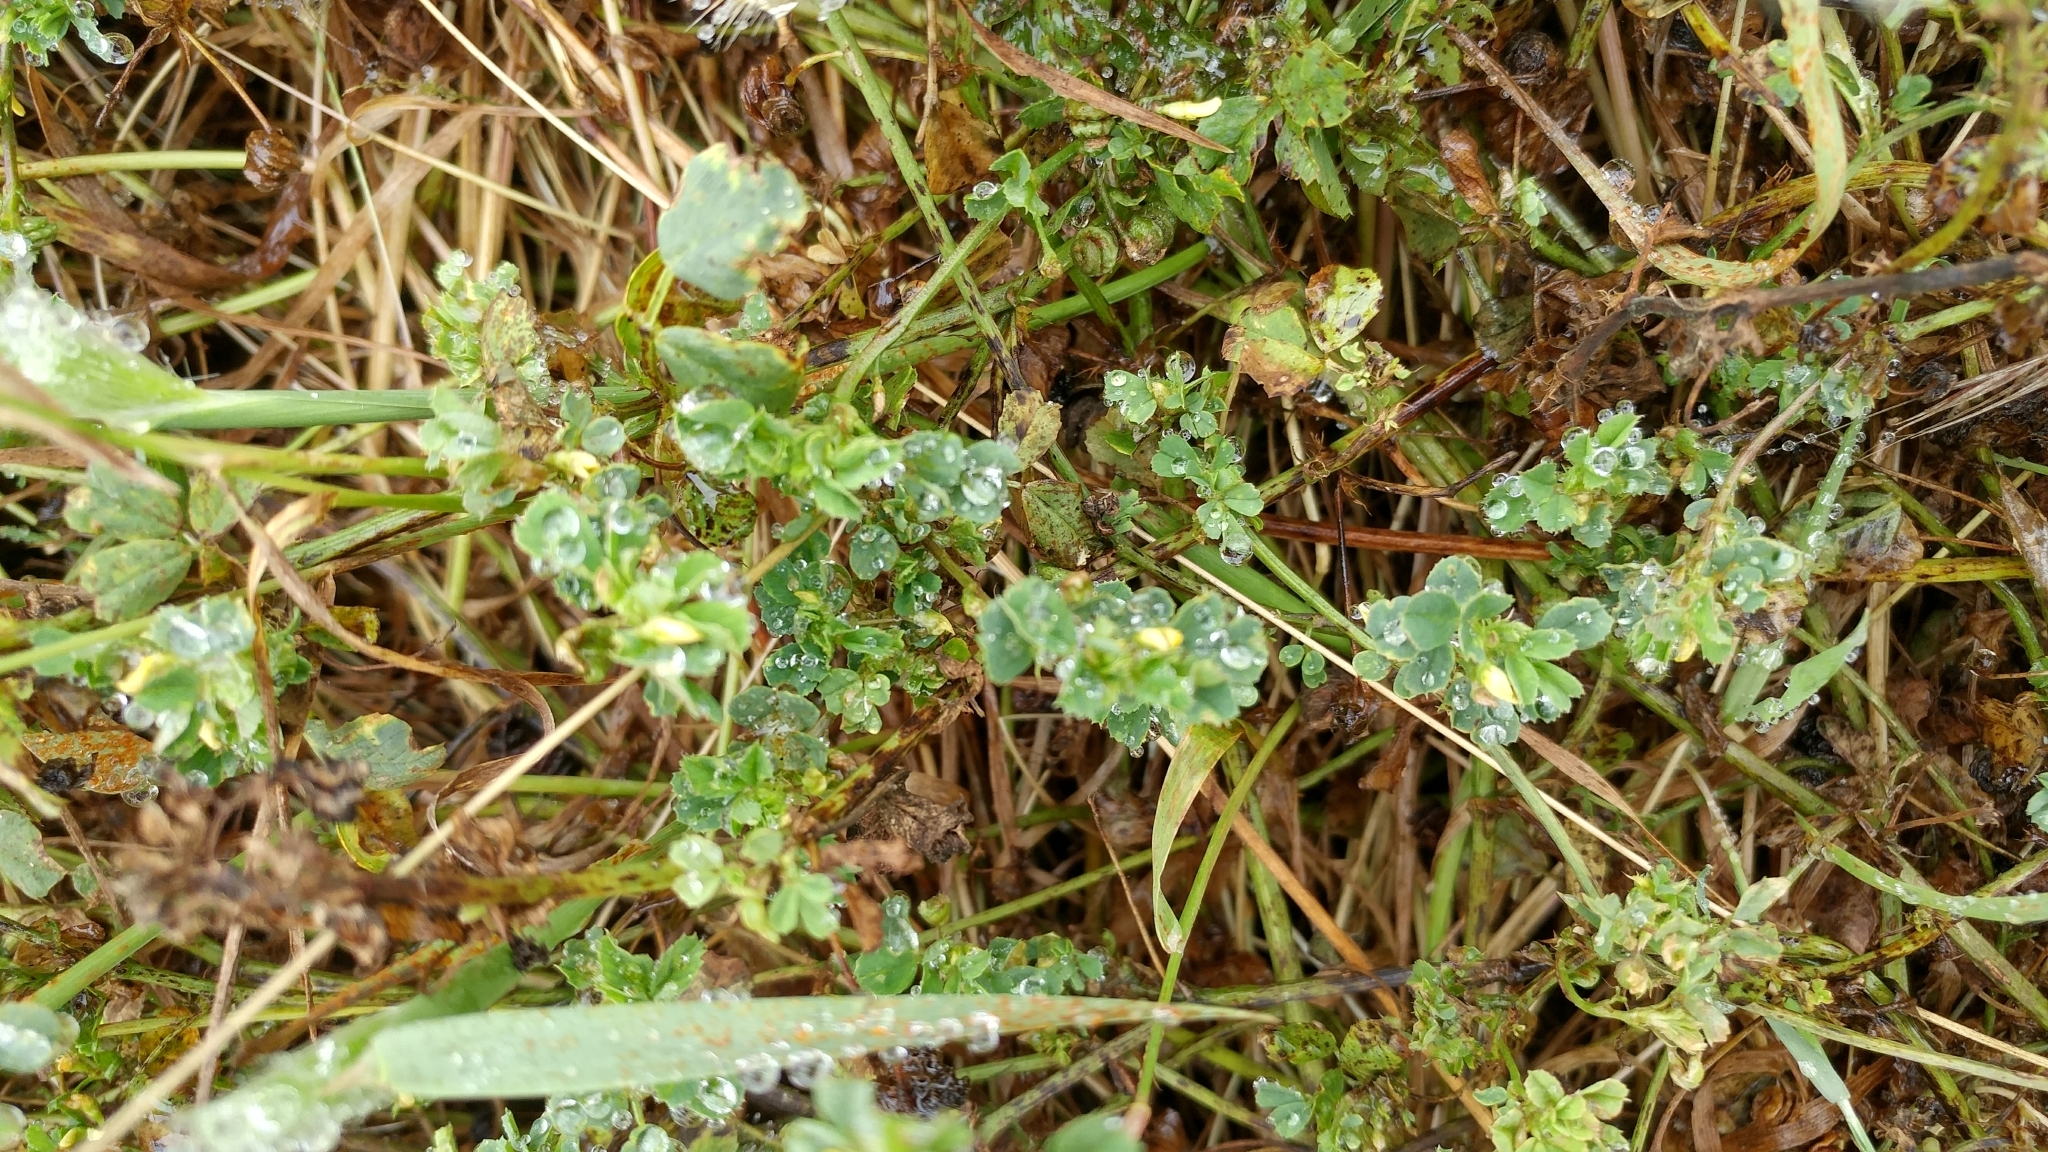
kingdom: Plantae
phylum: Tracheophyta
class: Magnoliopsida
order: Fabales
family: Fabaceae
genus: Medicago
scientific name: Medicago polymorpha
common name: Burclover
